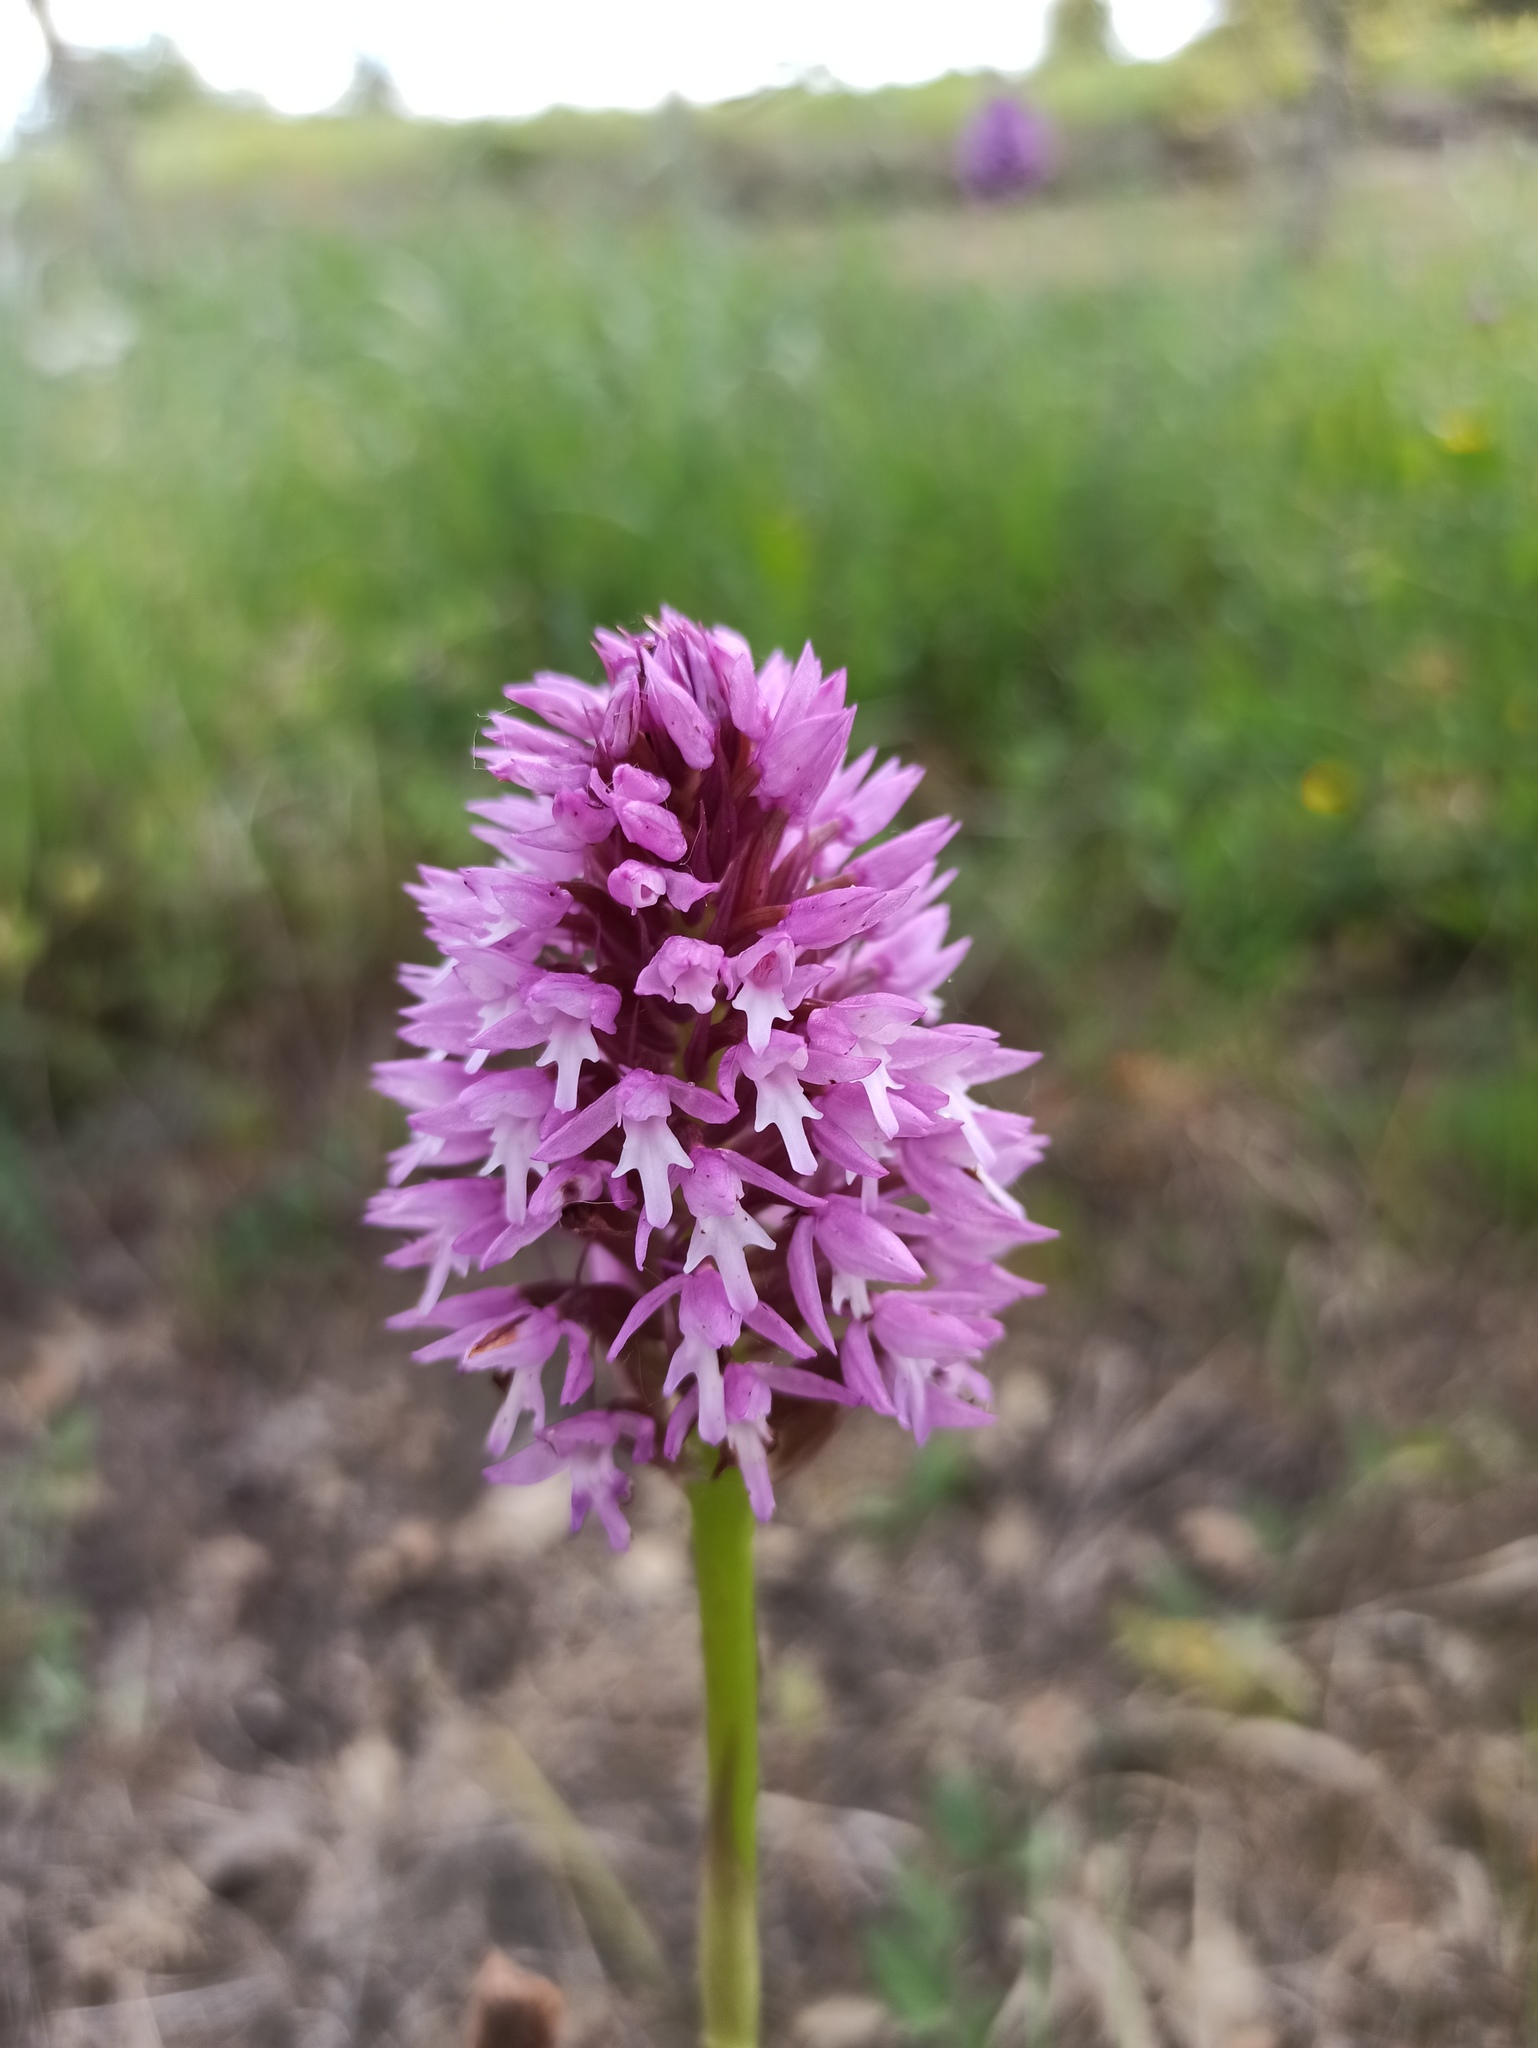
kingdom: Plantae
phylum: Tracheophyta
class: Liliopsida
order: Asparagales
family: Orchidaceae
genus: Anacamptis
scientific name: Anacamptis pyramidalis
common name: Pyramidal orchid
